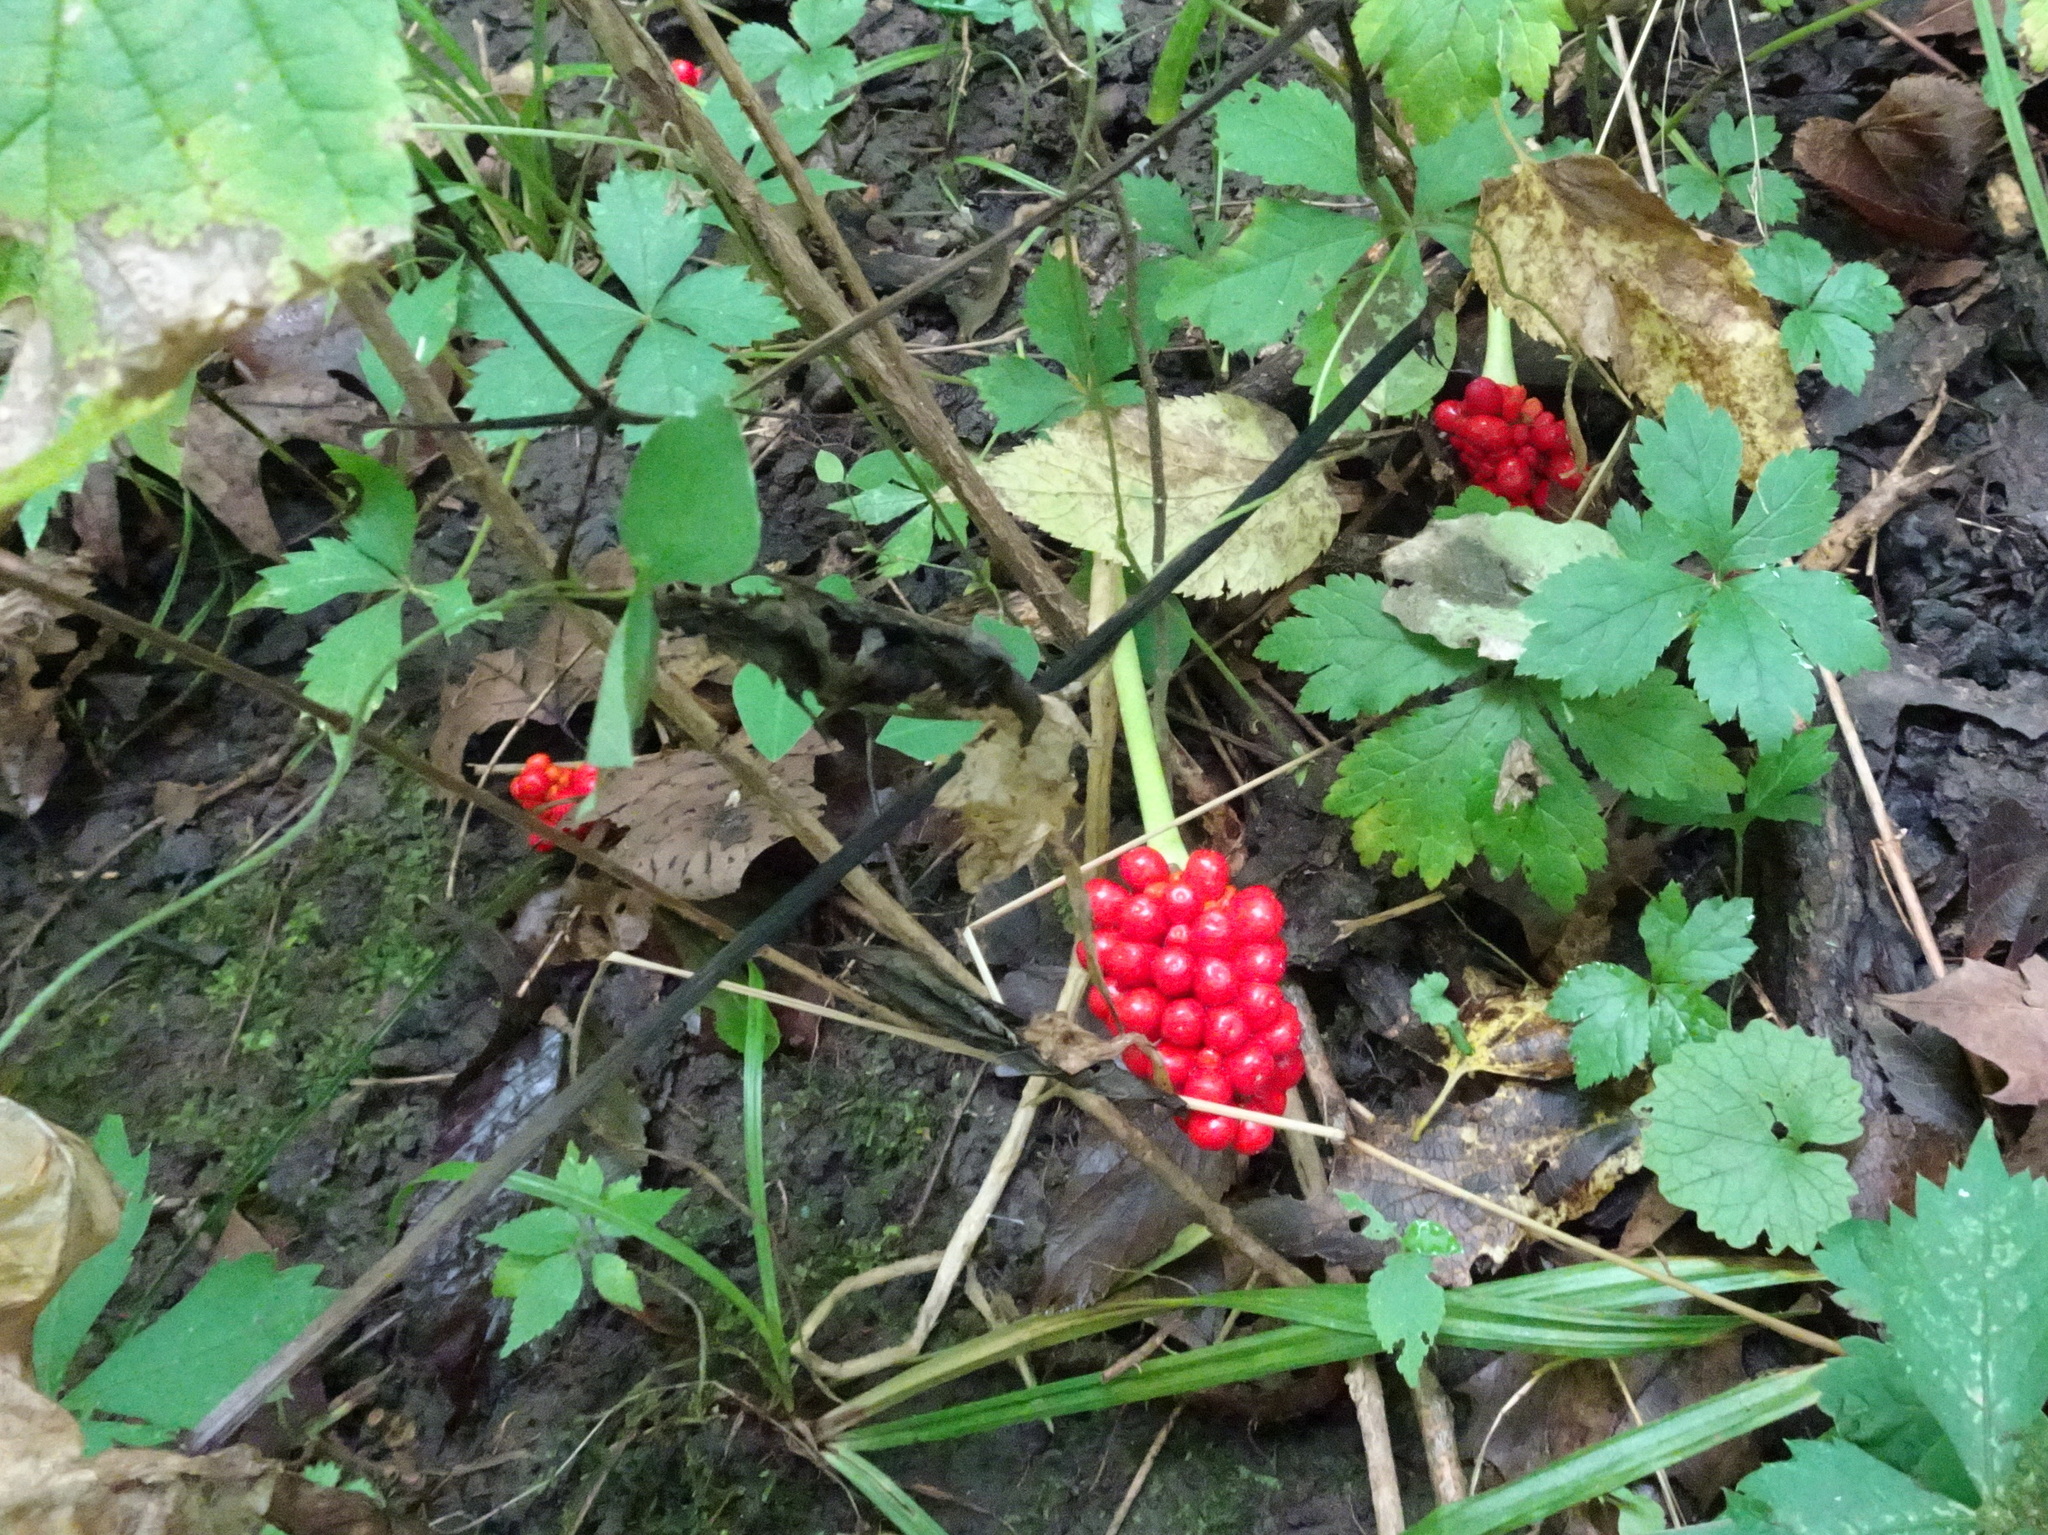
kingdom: Plantae
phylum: Tracheophyta
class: Liliopsida
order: Alismatales
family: Araceae
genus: Arisaema
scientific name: Arisaema triphyllum
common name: Jack-in-the-pulpit
